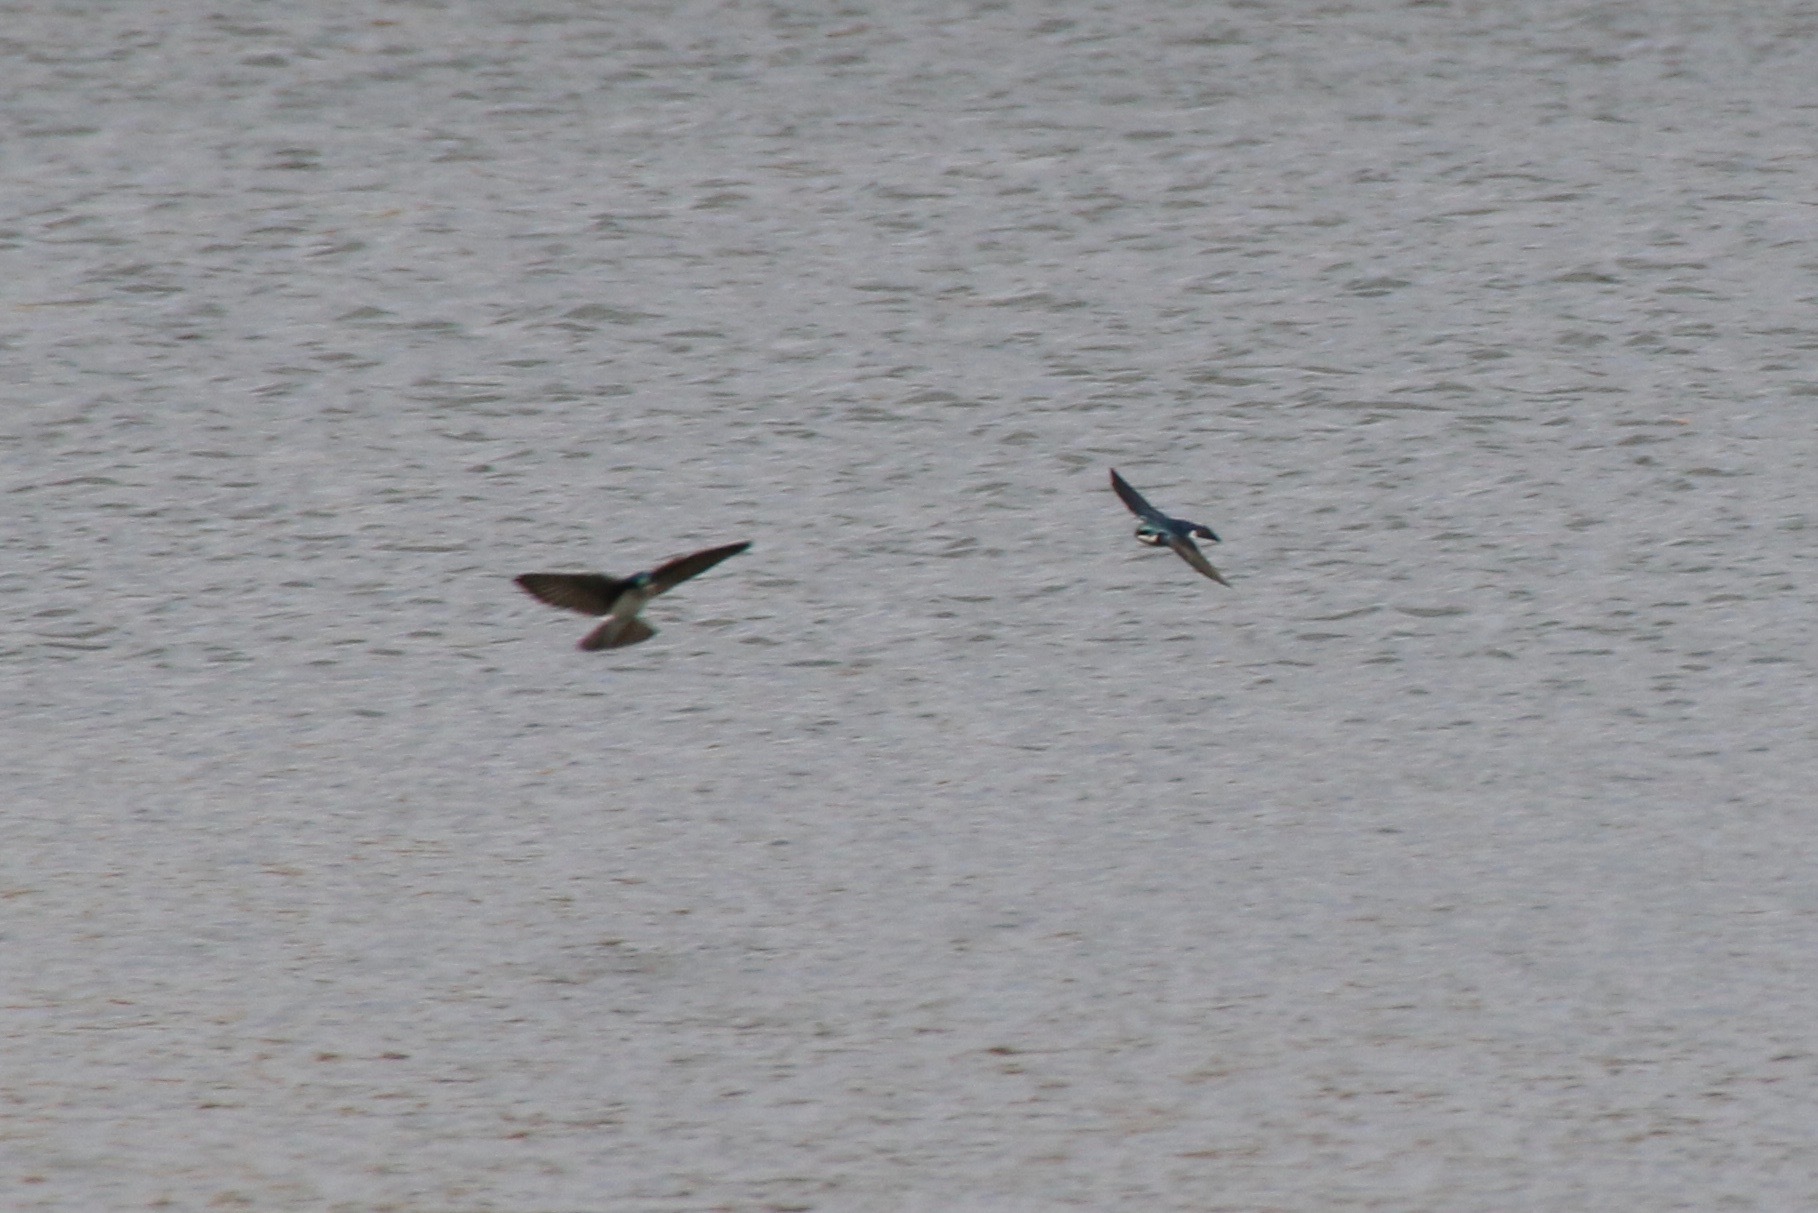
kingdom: Animalia
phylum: Chordata
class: Aves
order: Passeriformes
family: Hirundinidae
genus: Tachycineta
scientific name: Tachycineta bicolor
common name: Tree swallow
